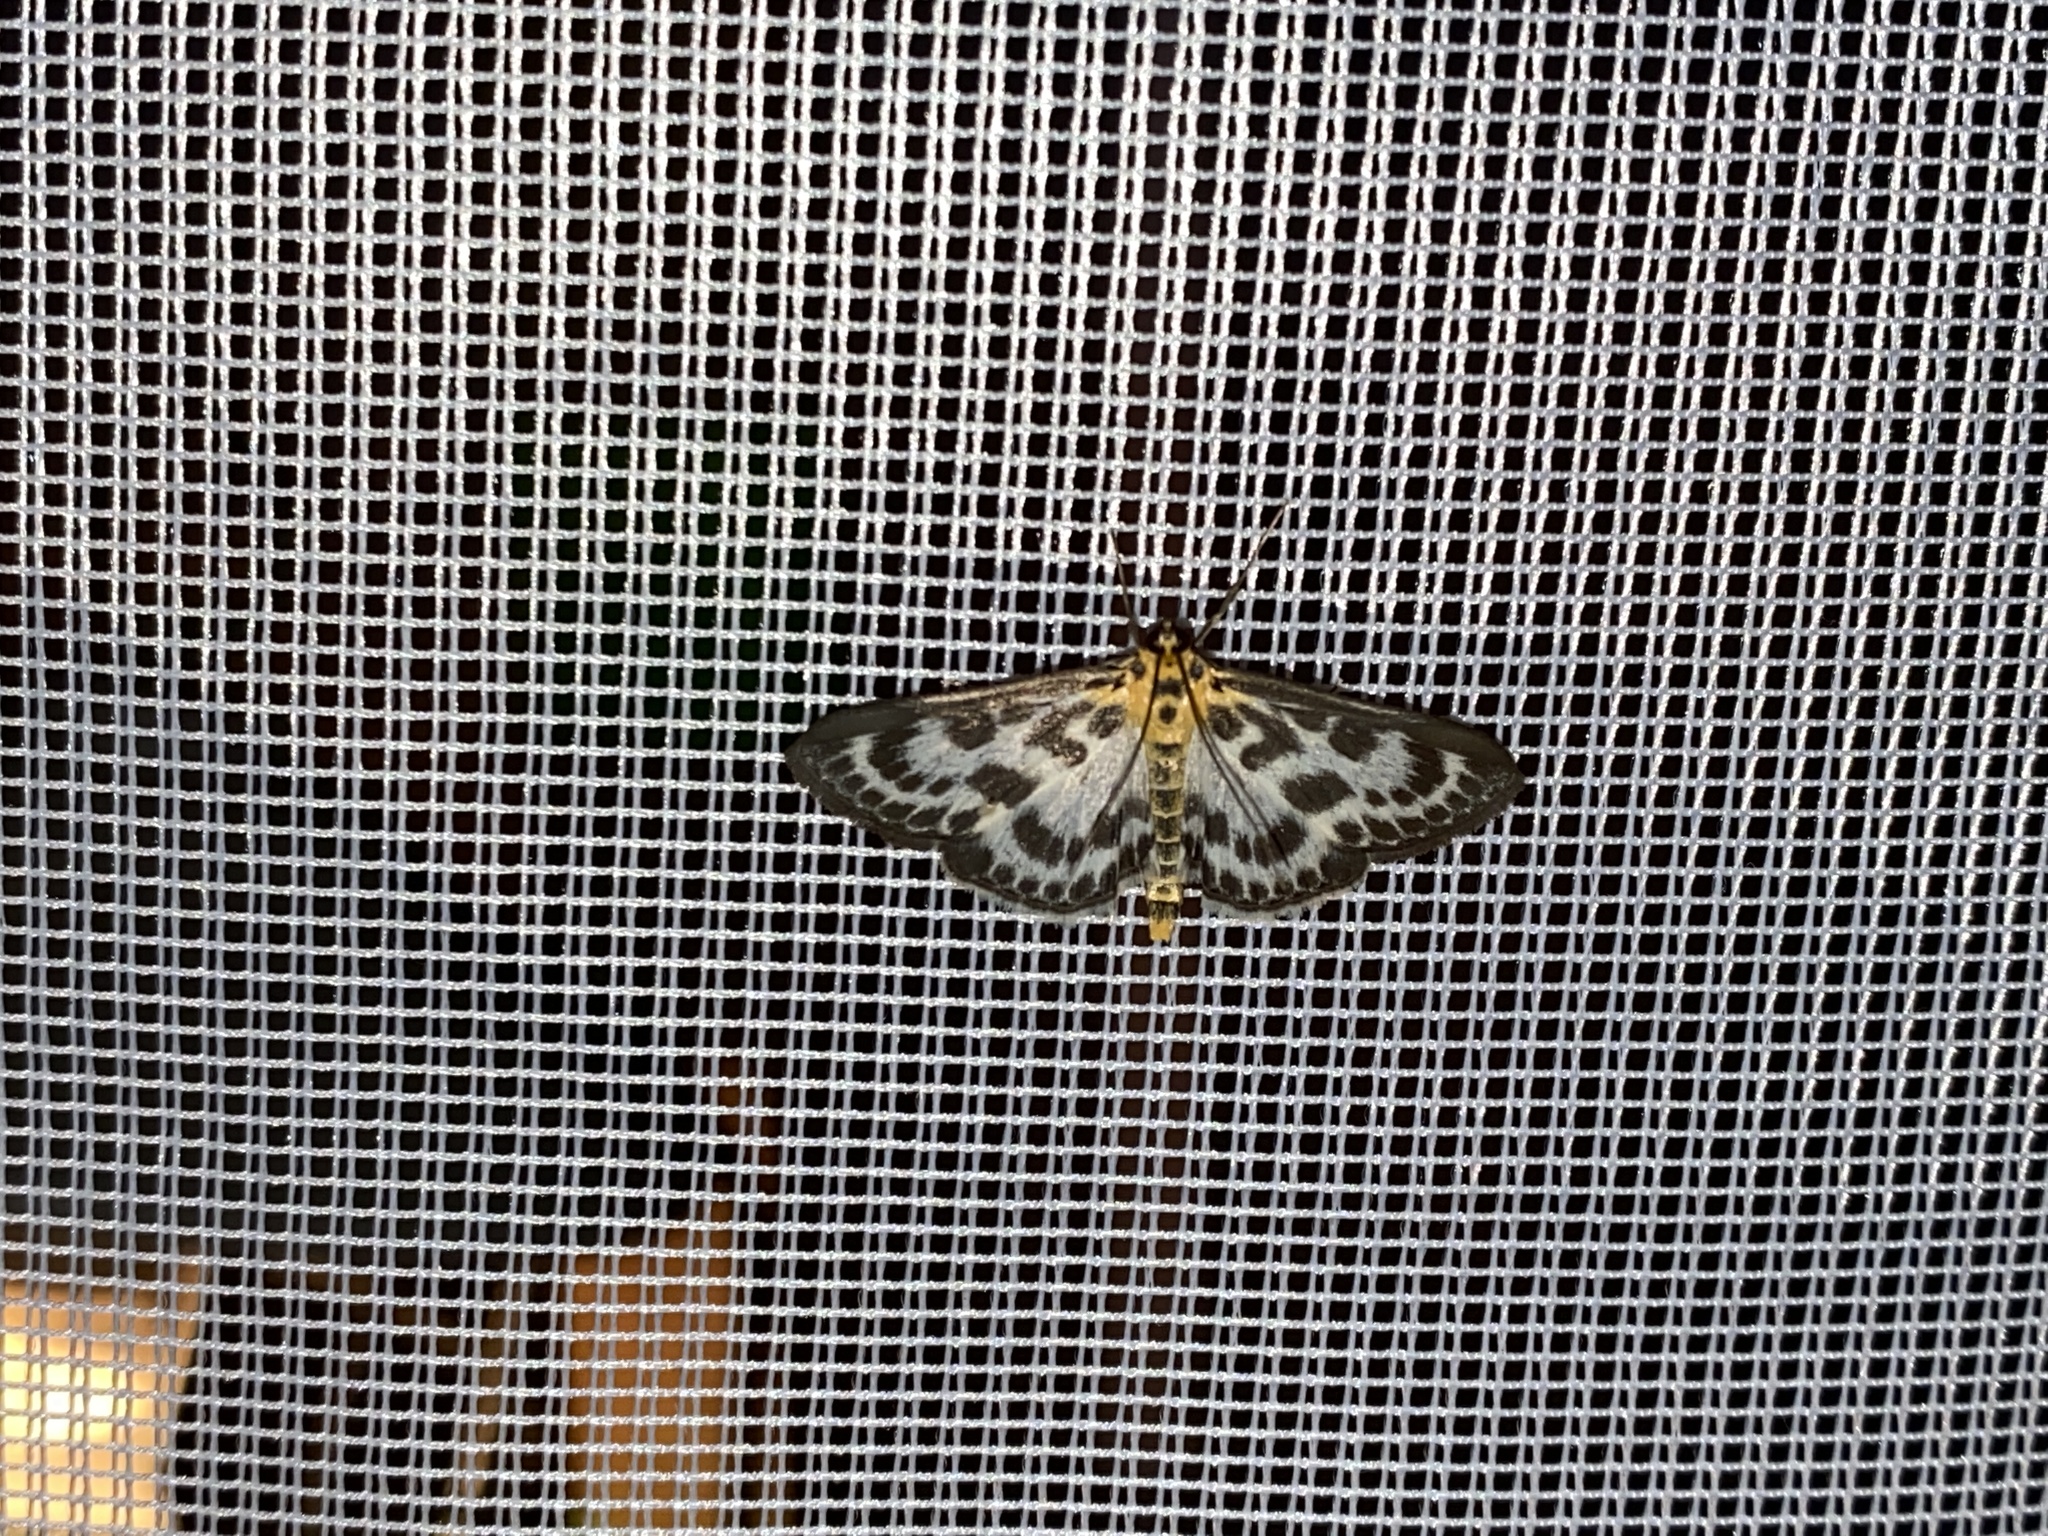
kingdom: Animalia
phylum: Arthropoda
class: Insecta
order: Lepidoptera
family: Crambidae
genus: Anania
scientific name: Anania hortulata
